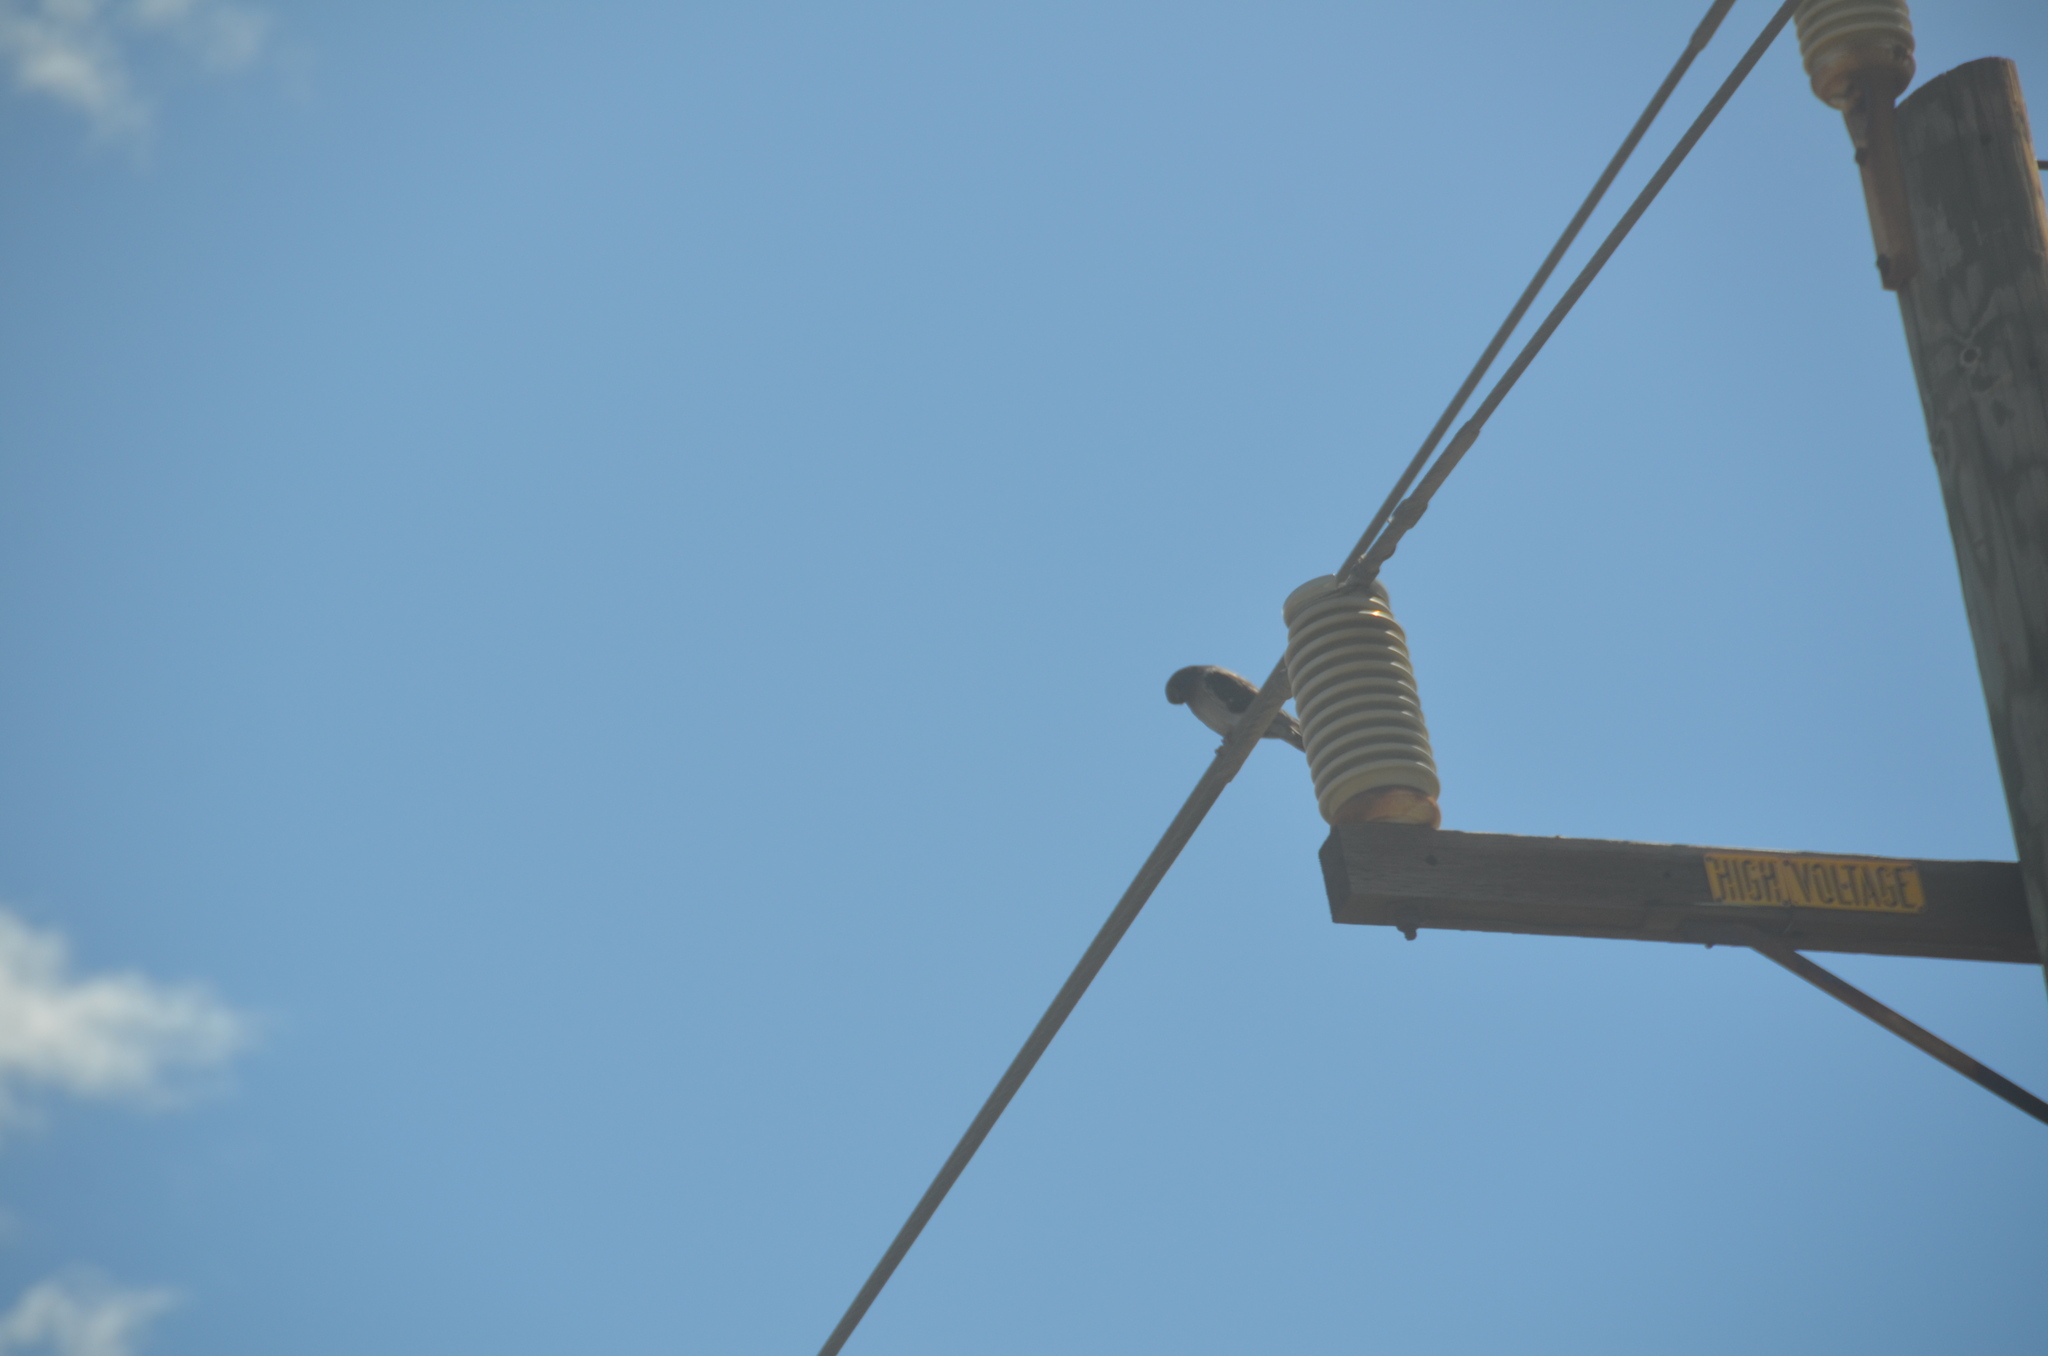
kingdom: Animalia
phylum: Chordata
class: Aves
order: Columbiformes
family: Columbidae
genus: Columba
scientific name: Columba livia
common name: Rock pigeon
